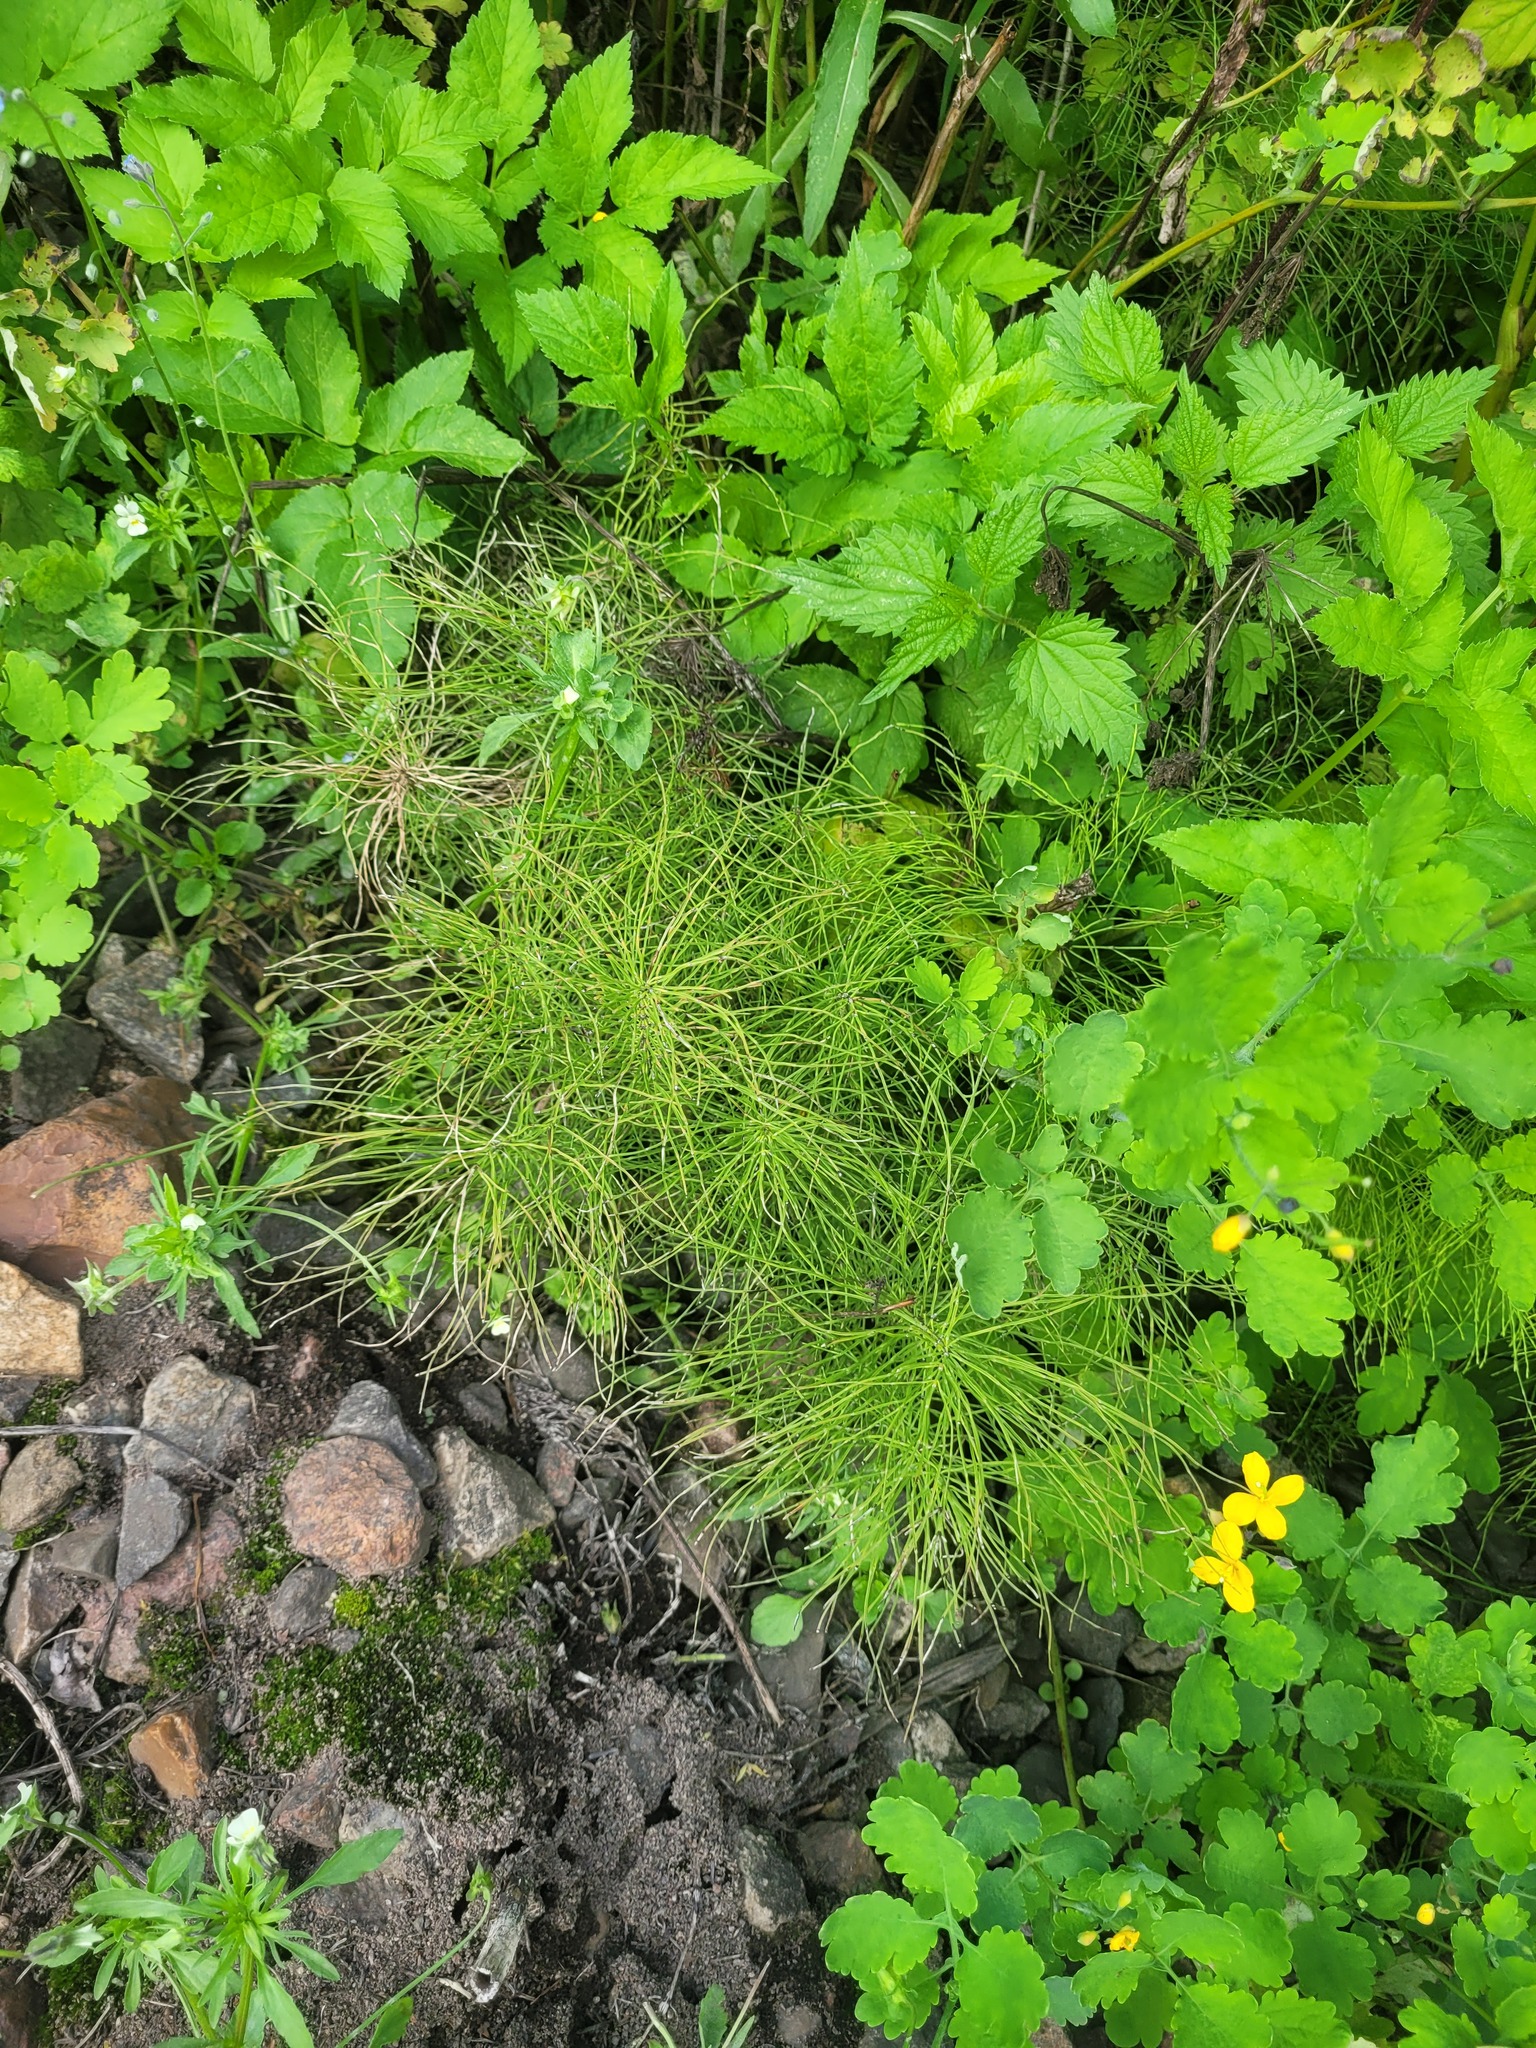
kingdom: Plantae
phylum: Tracheophyta
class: Polypodiopsida
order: Equisetales
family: Equisetaceae
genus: Equisetum
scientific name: Equisetum arvense
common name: Field horsetail
